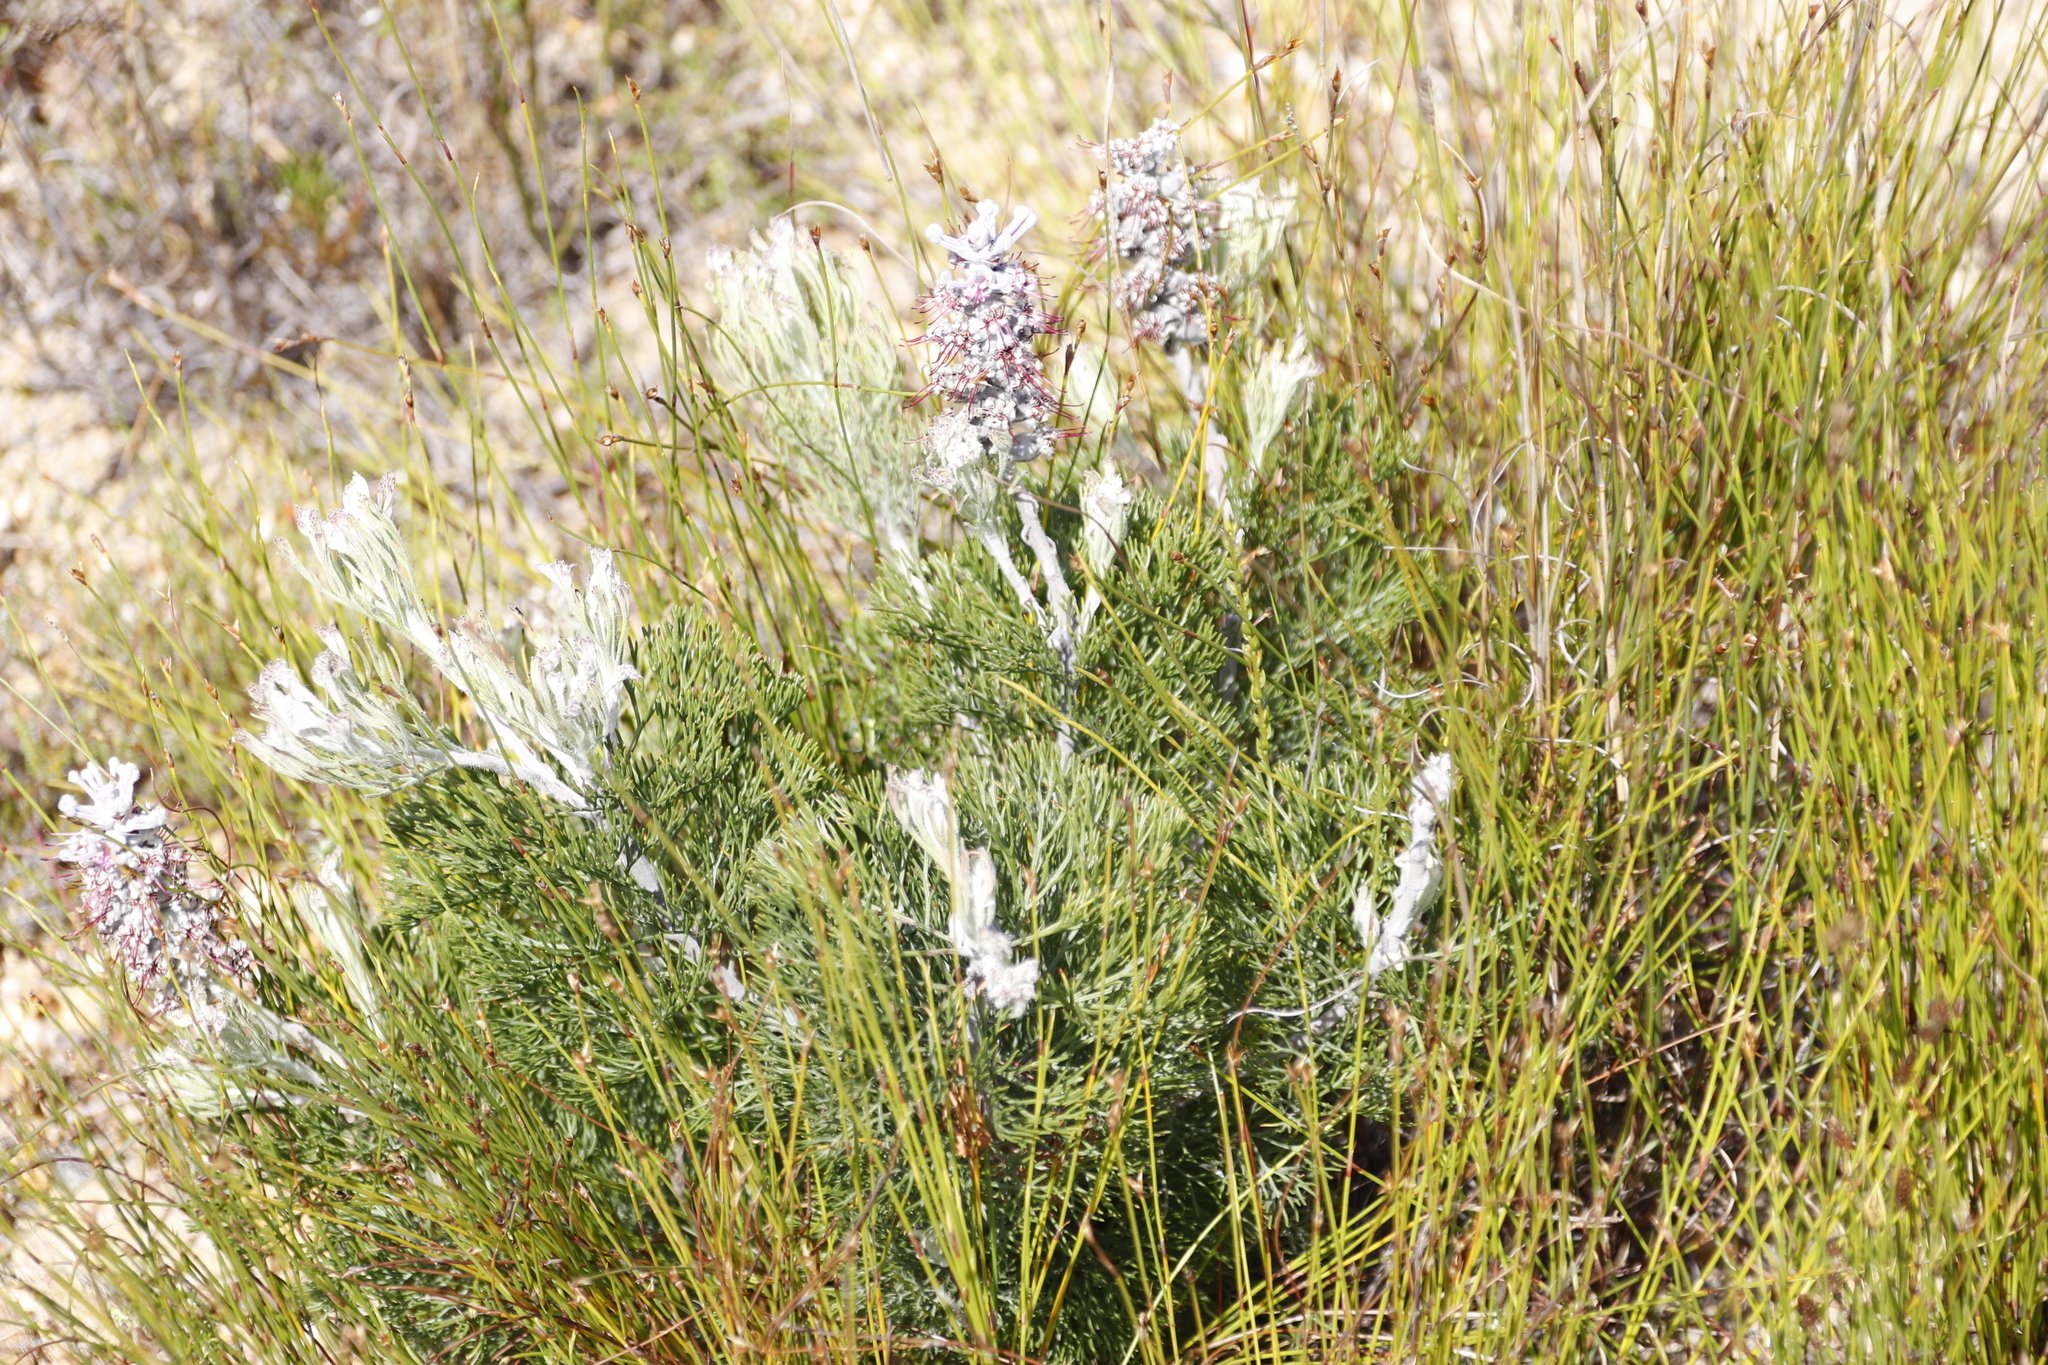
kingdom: Plantae
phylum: Tracheophyta
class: Magnoliopsida
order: Proteales
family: Proteaceae
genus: Paranomus
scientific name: Paranomus bolusii
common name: Overberg sceptre
